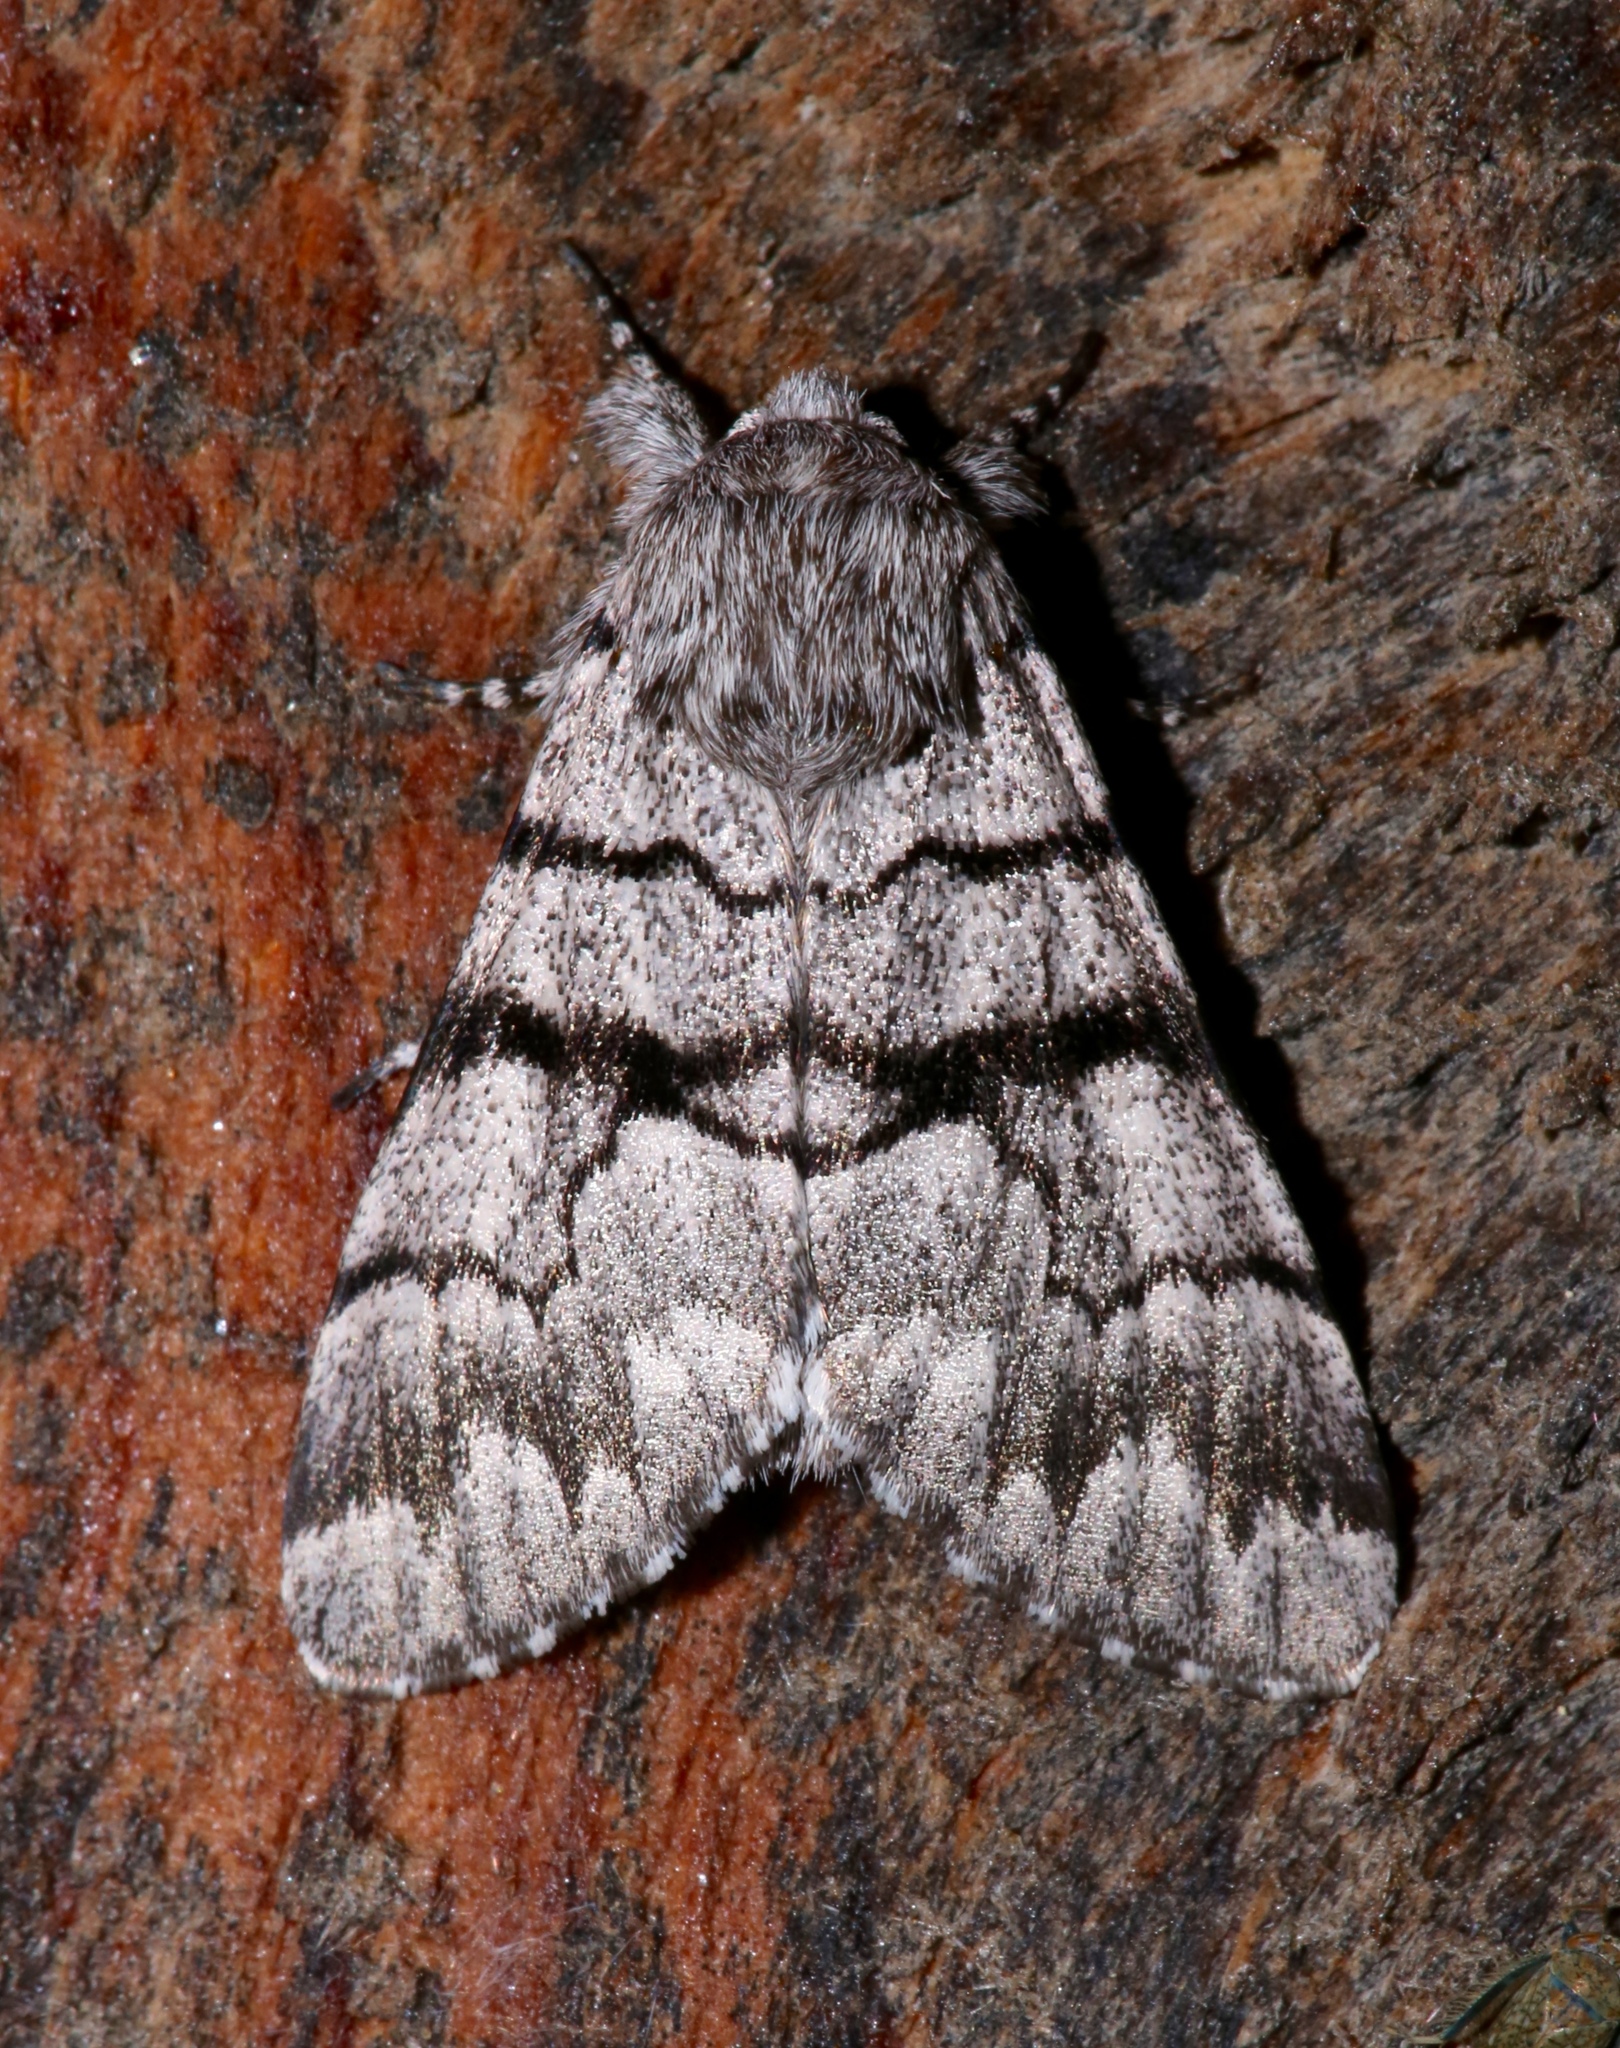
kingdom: Animalia
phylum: Arthropoda
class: Insecta
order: Lepidoptera
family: Noctuidae
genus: Panthea
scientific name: Panthea furcilla
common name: Eastern panthea moth
